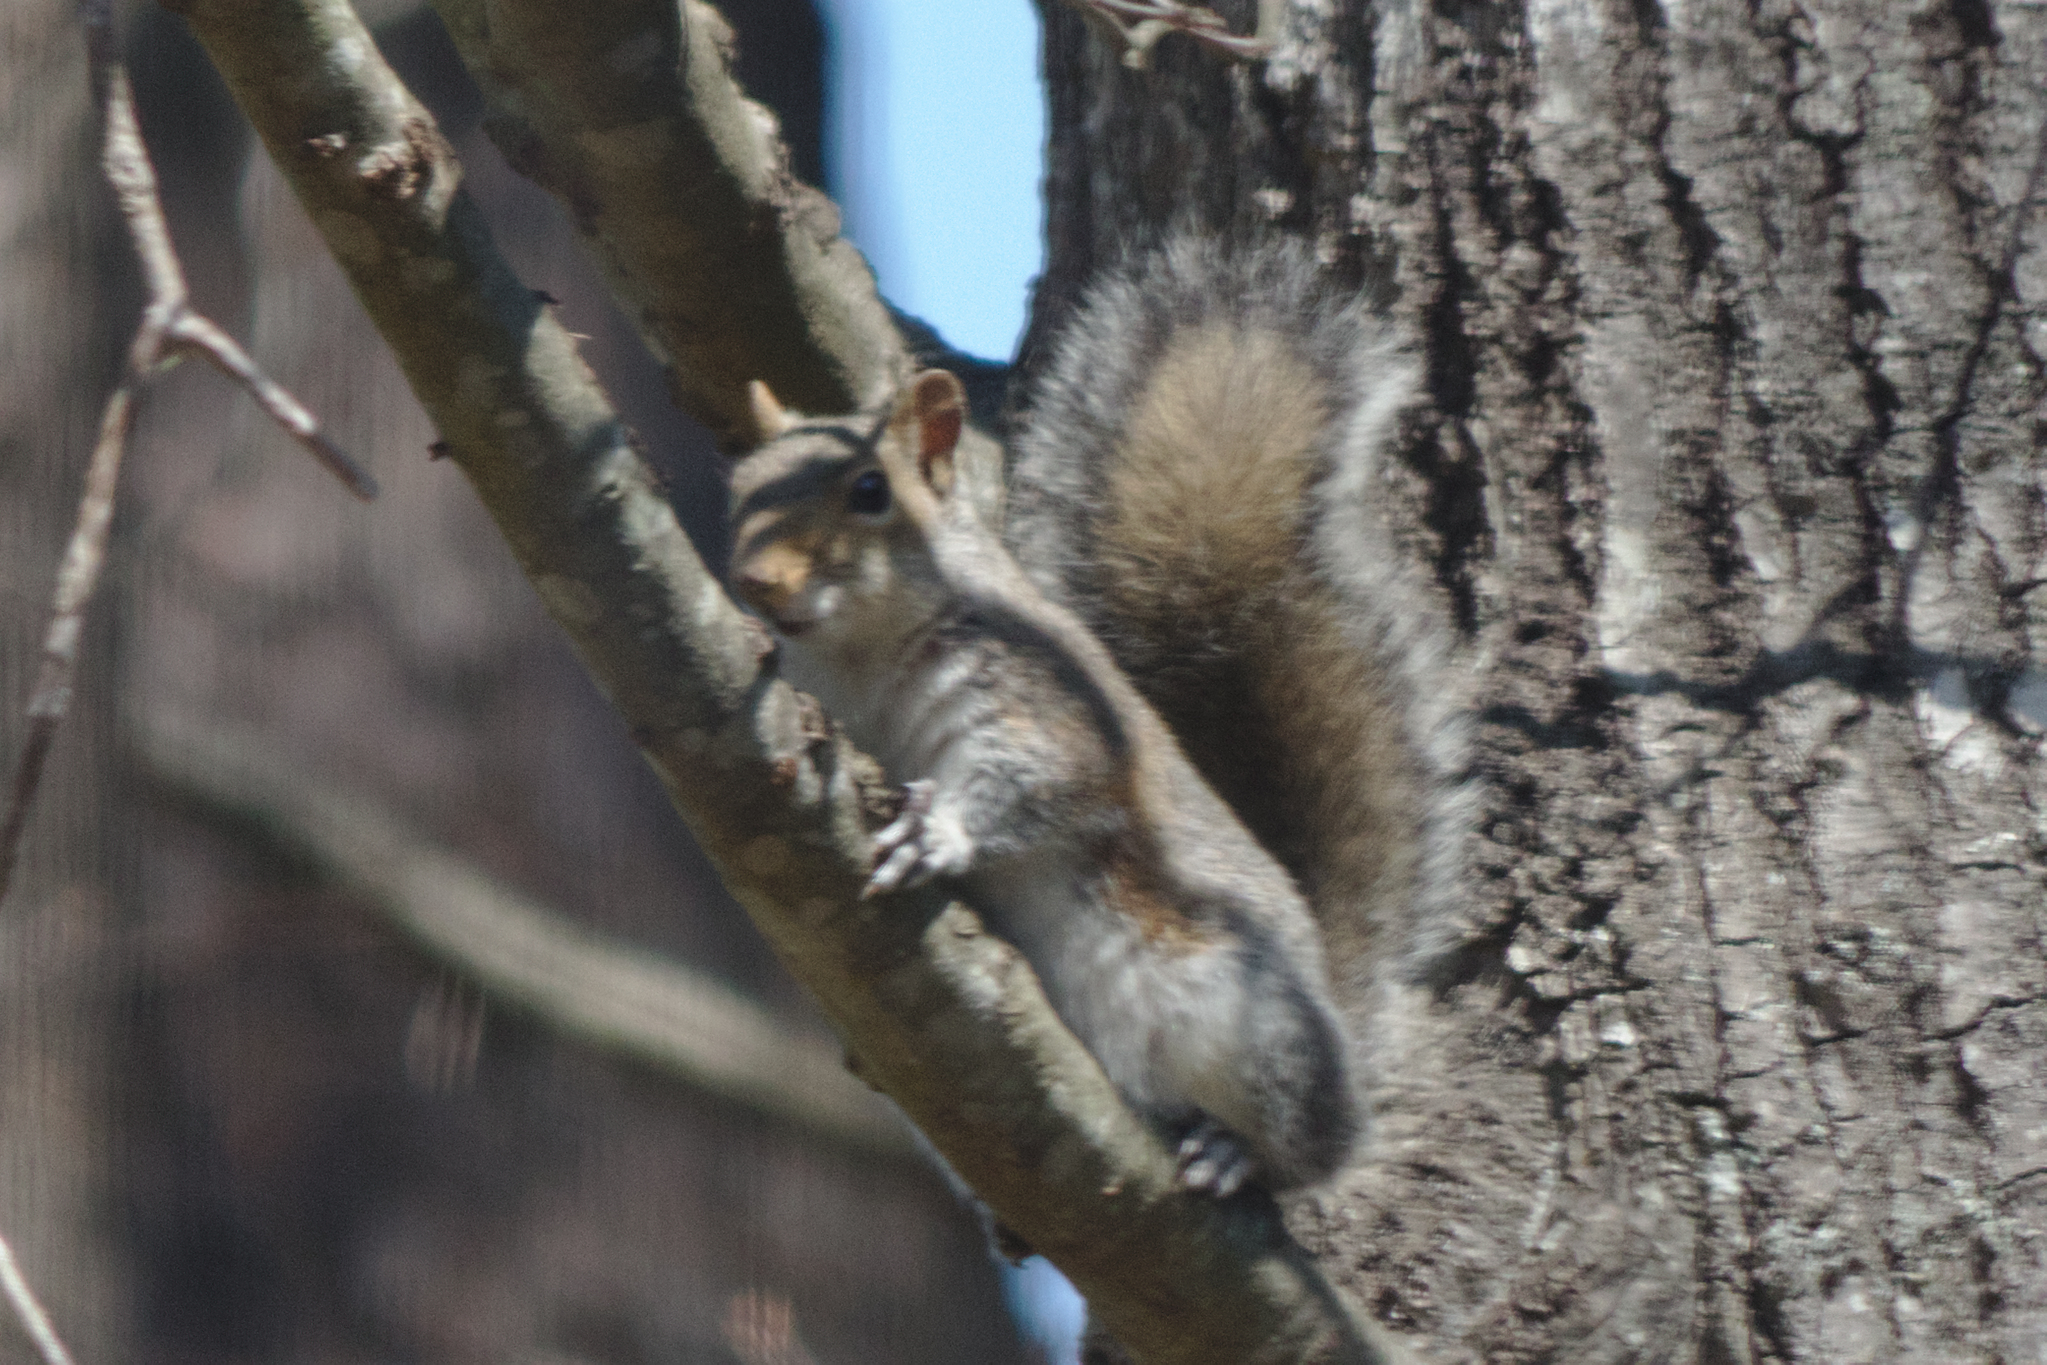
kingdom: Animalia
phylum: Chordata
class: Mammalia
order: Rodentia
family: Sciuridae
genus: Sciurus
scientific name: Sciurus carolinensis
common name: Eastern gray squirrel
